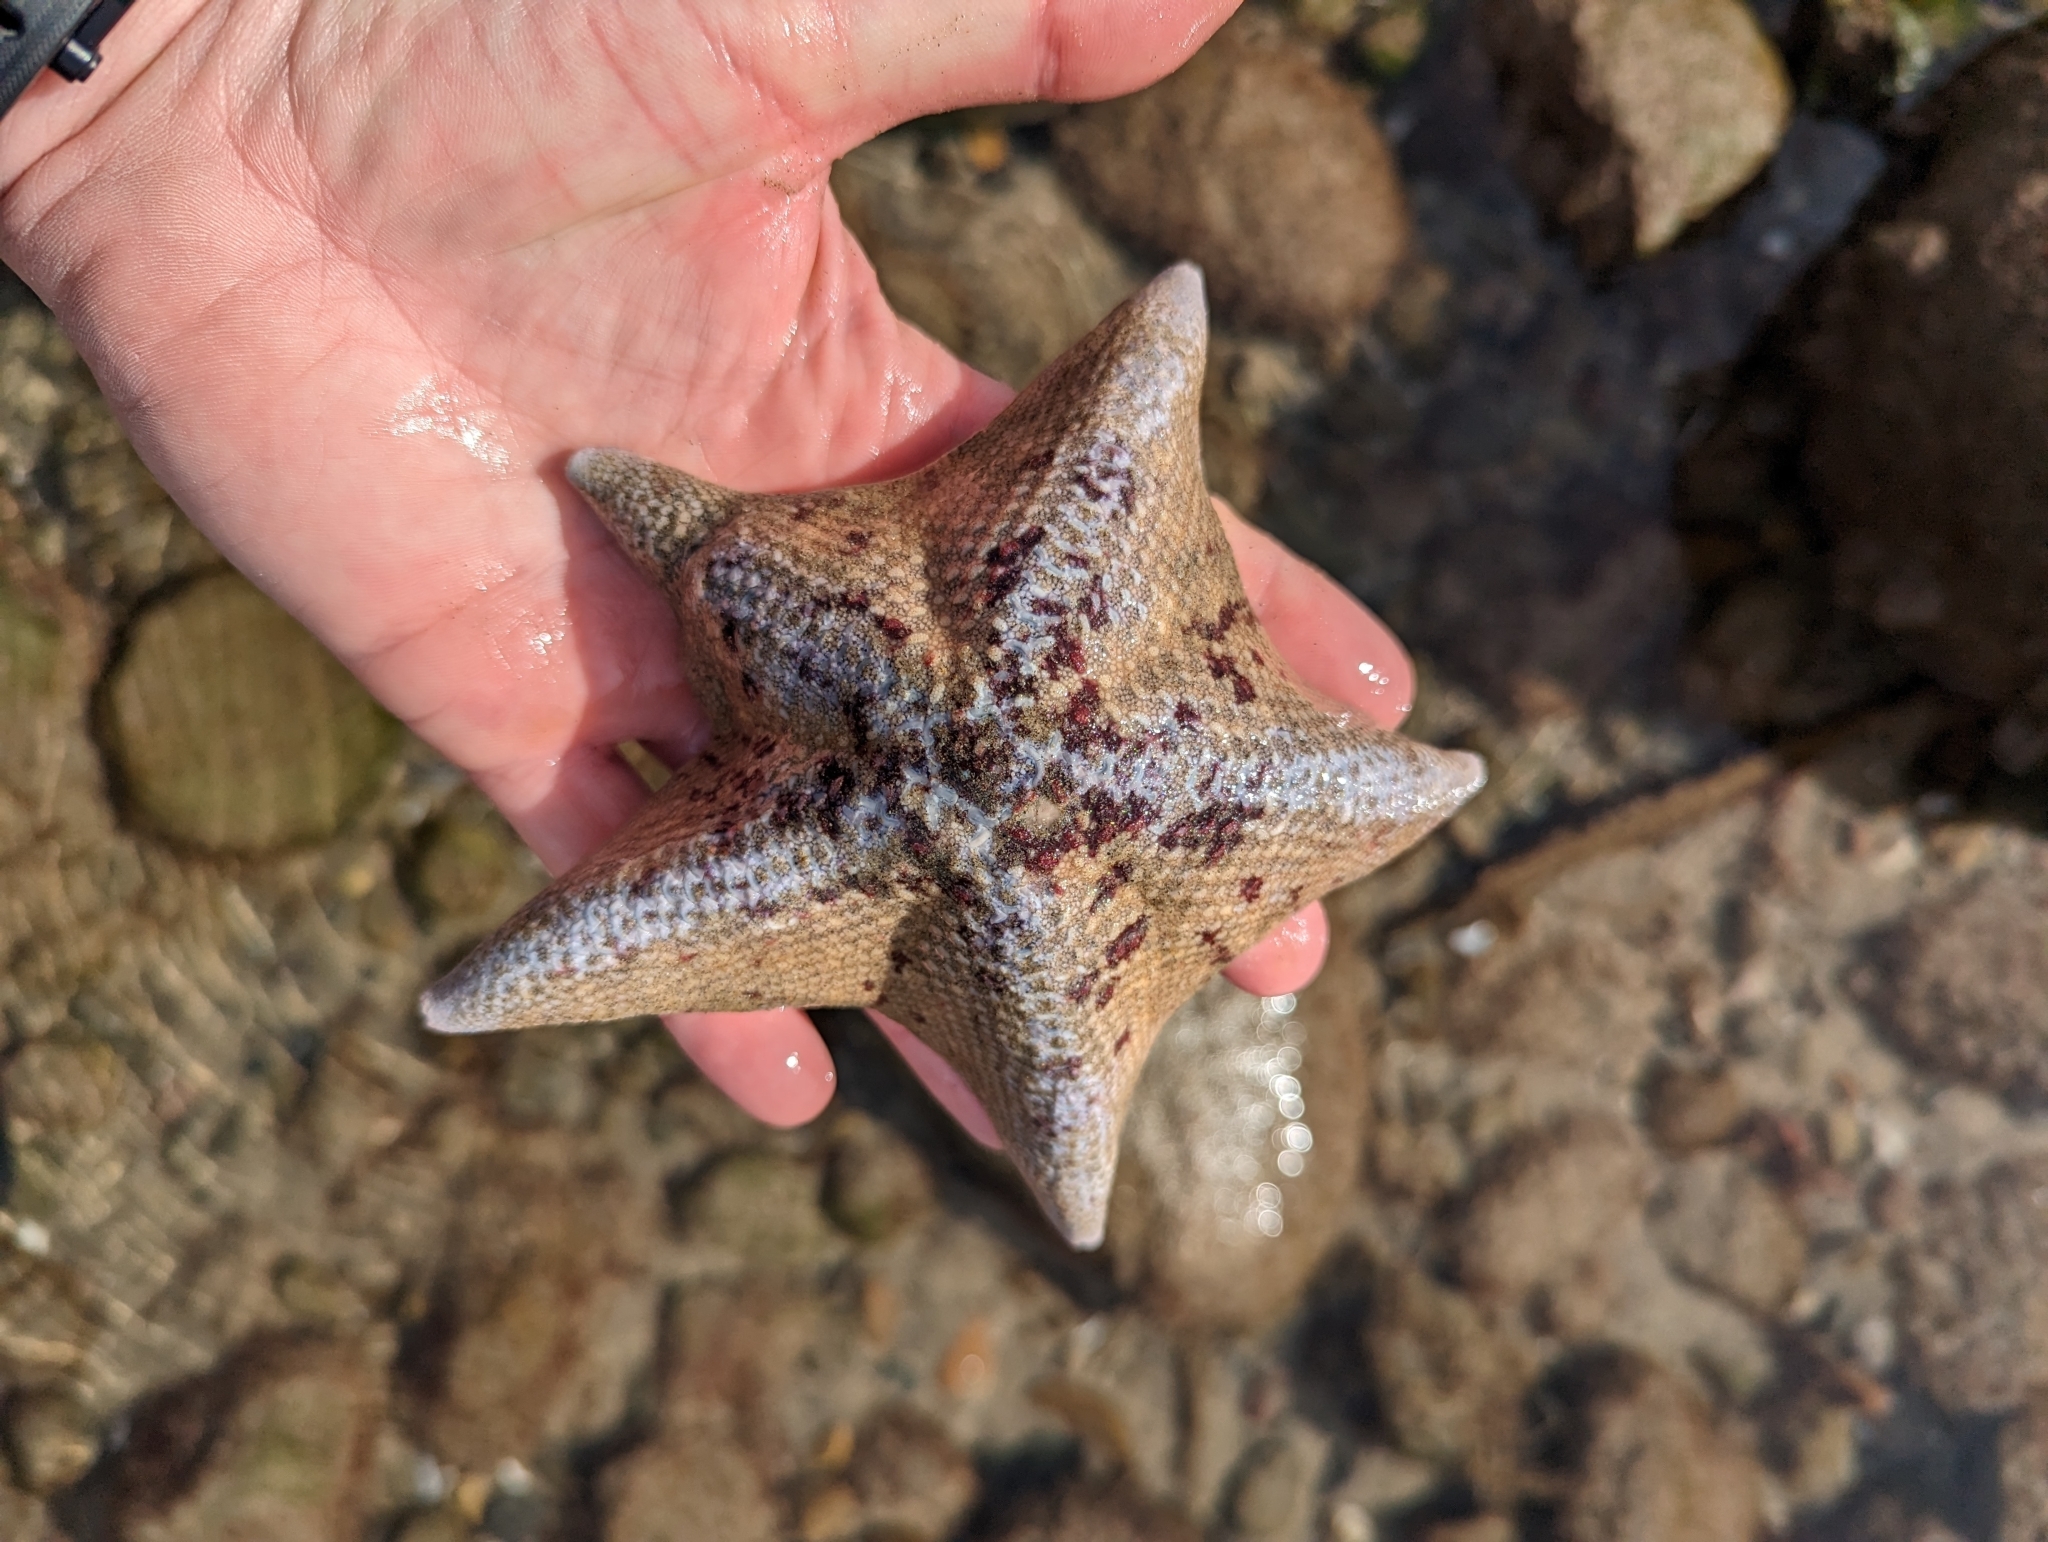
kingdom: Animalia
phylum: Echinodermata
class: Asteroidea
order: Valvatida
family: Asterinidae
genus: Patiria
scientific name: Patiria miniata
